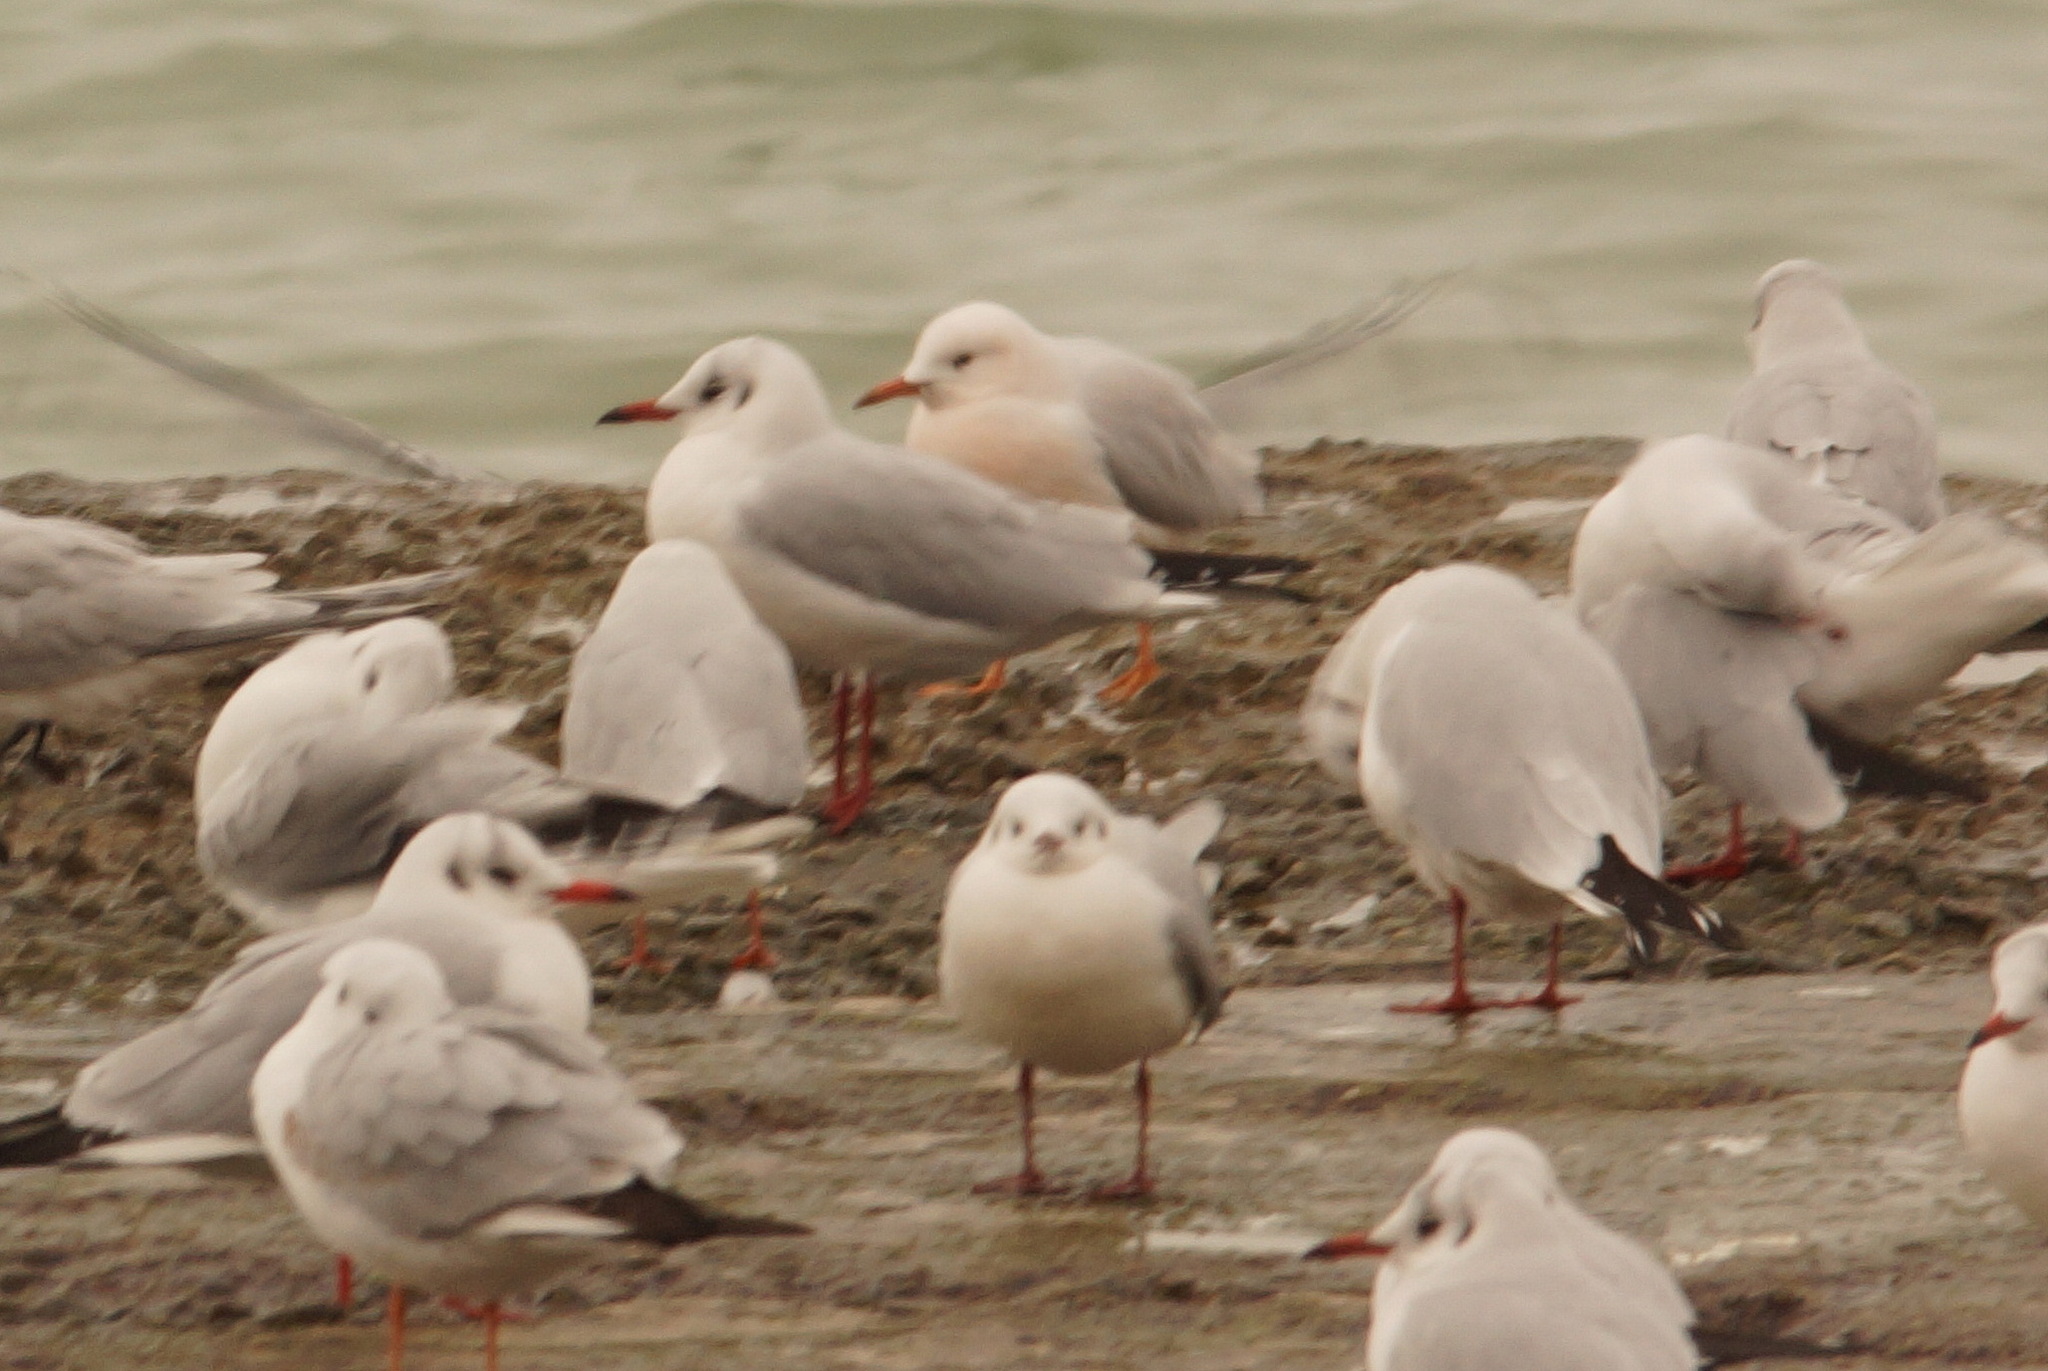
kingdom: Animalia
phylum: Chordata
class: Aves
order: Charadriiformes
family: Laridae
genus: Chroicocephalus
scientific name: Chroicocephalus genei
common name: Slender-billed gull
